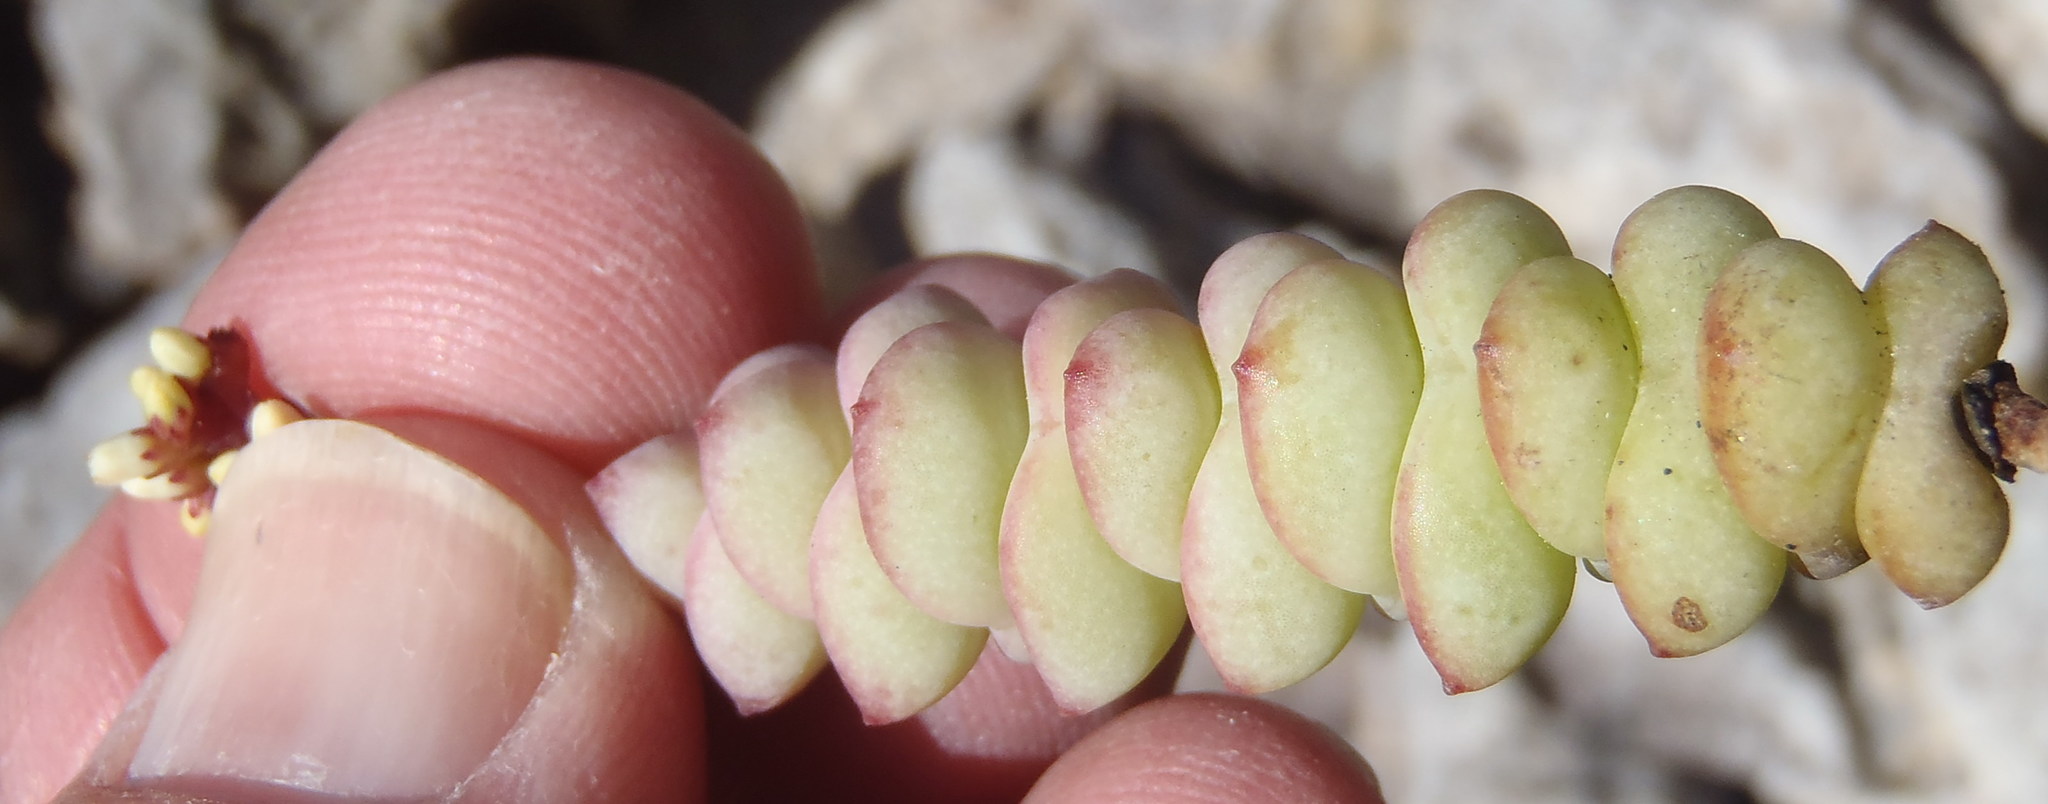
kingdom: Plantae
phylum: Tracheophyta
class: Magnoliopsida
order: Saxifragales
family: Crassulaceae
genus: Crassula
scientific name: Crassula perforata
